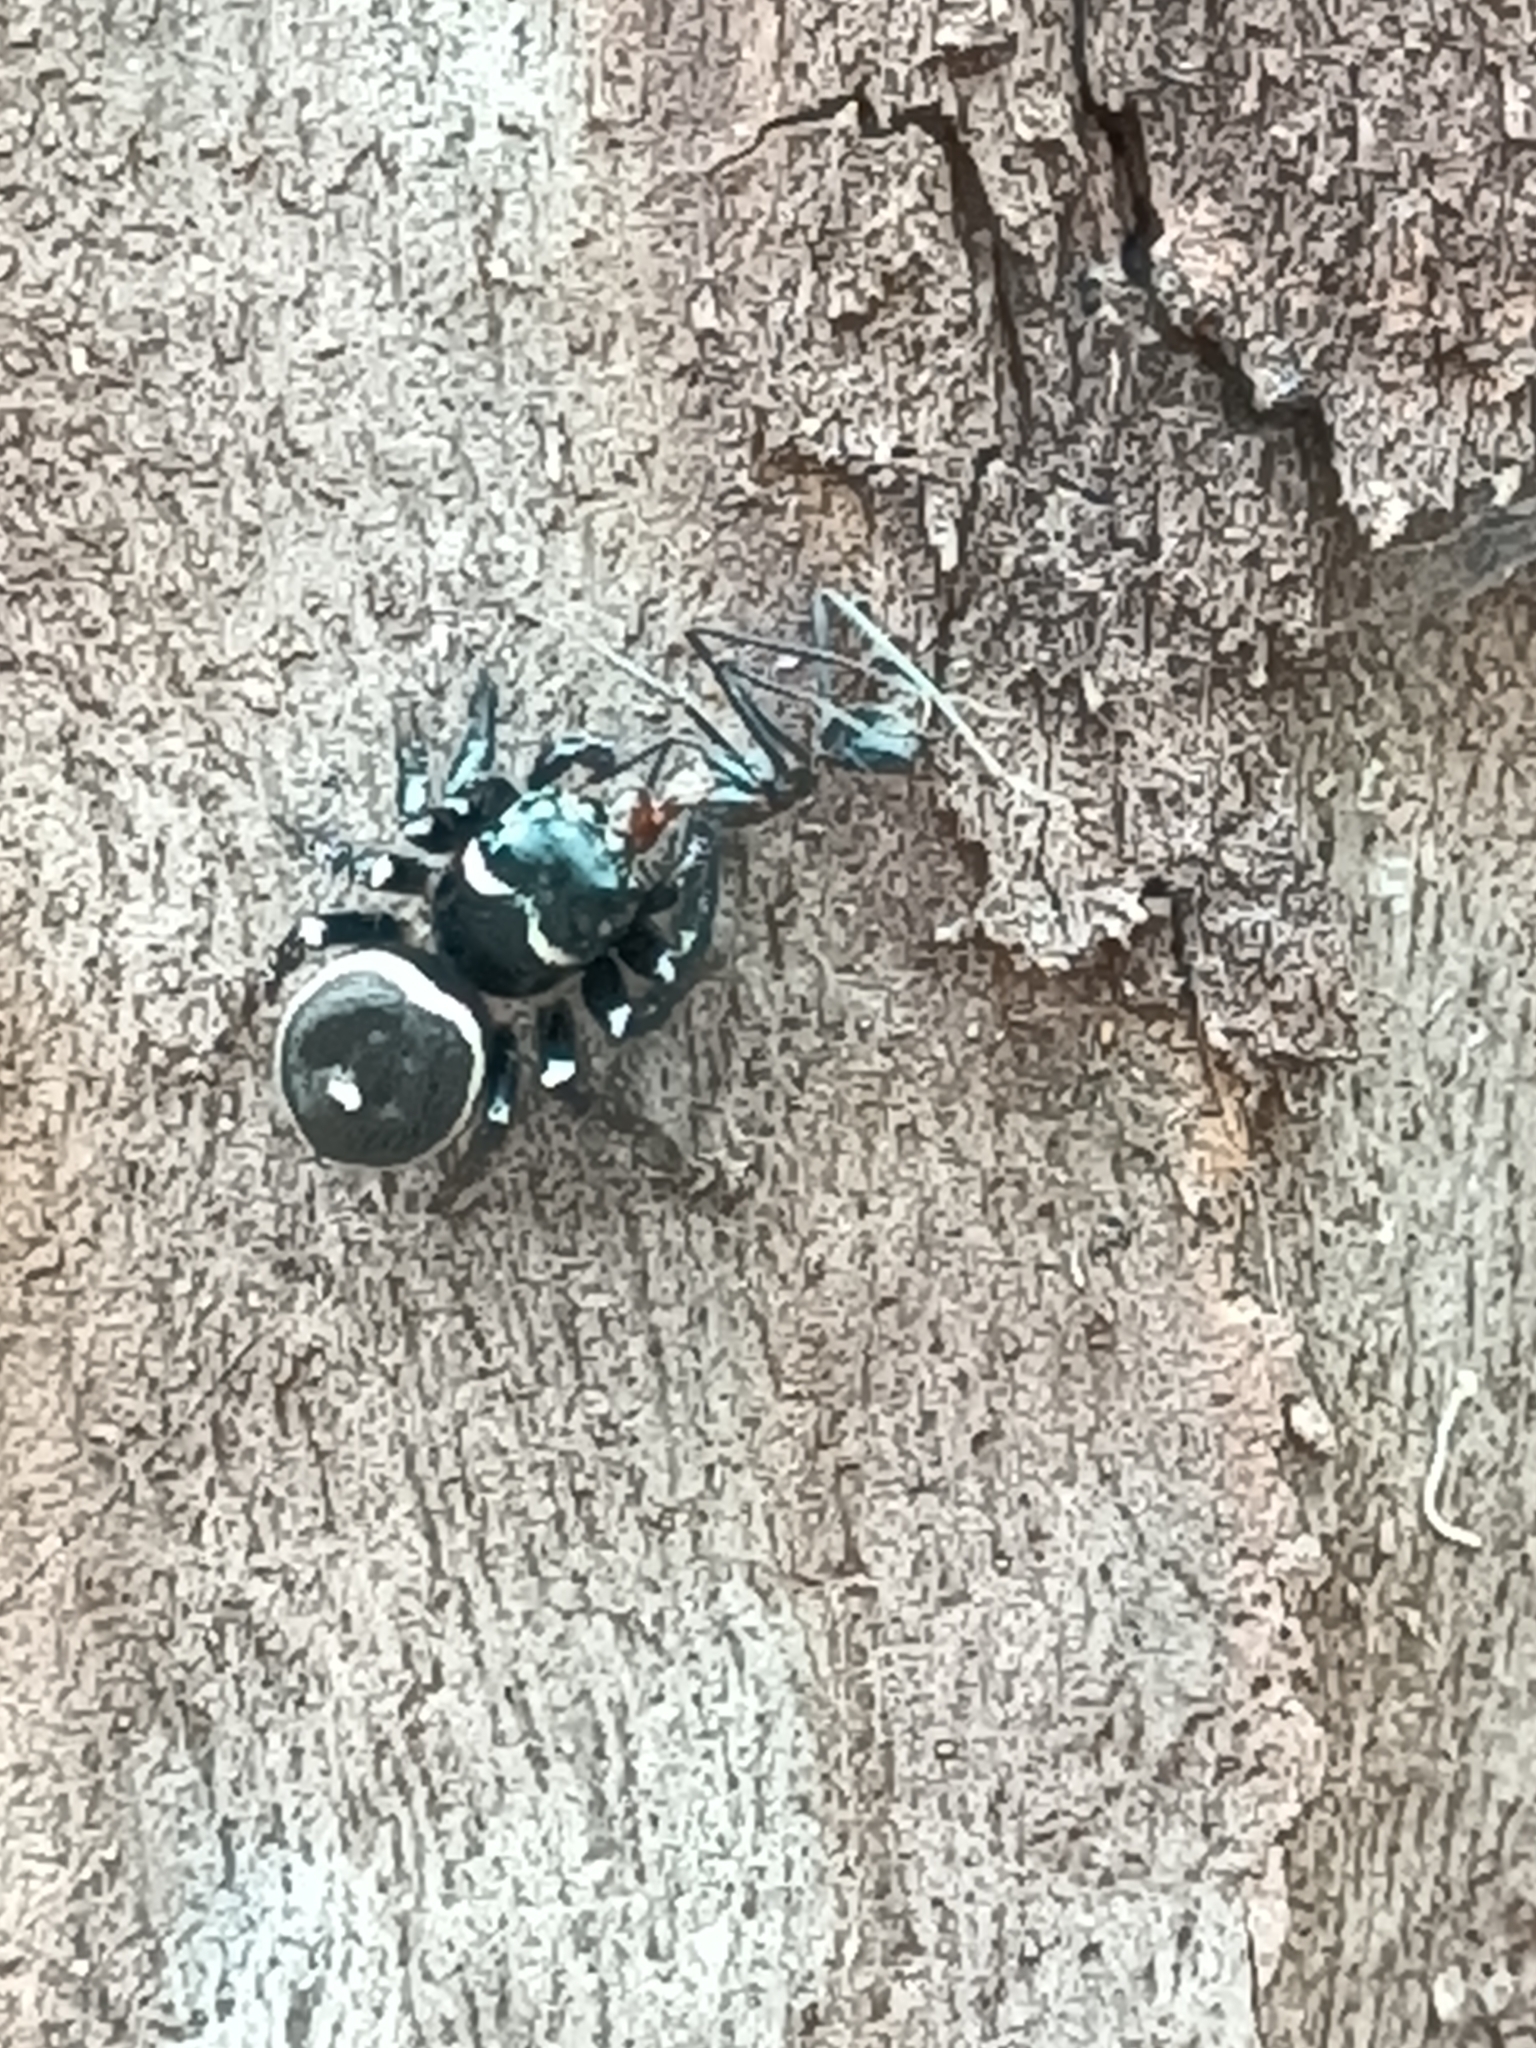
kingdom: Animalia
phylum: Arthropoda
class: Arachnida
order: Araneae
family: Salticidae
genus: Zenodorus
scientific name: Zenodorus orbiculatus
